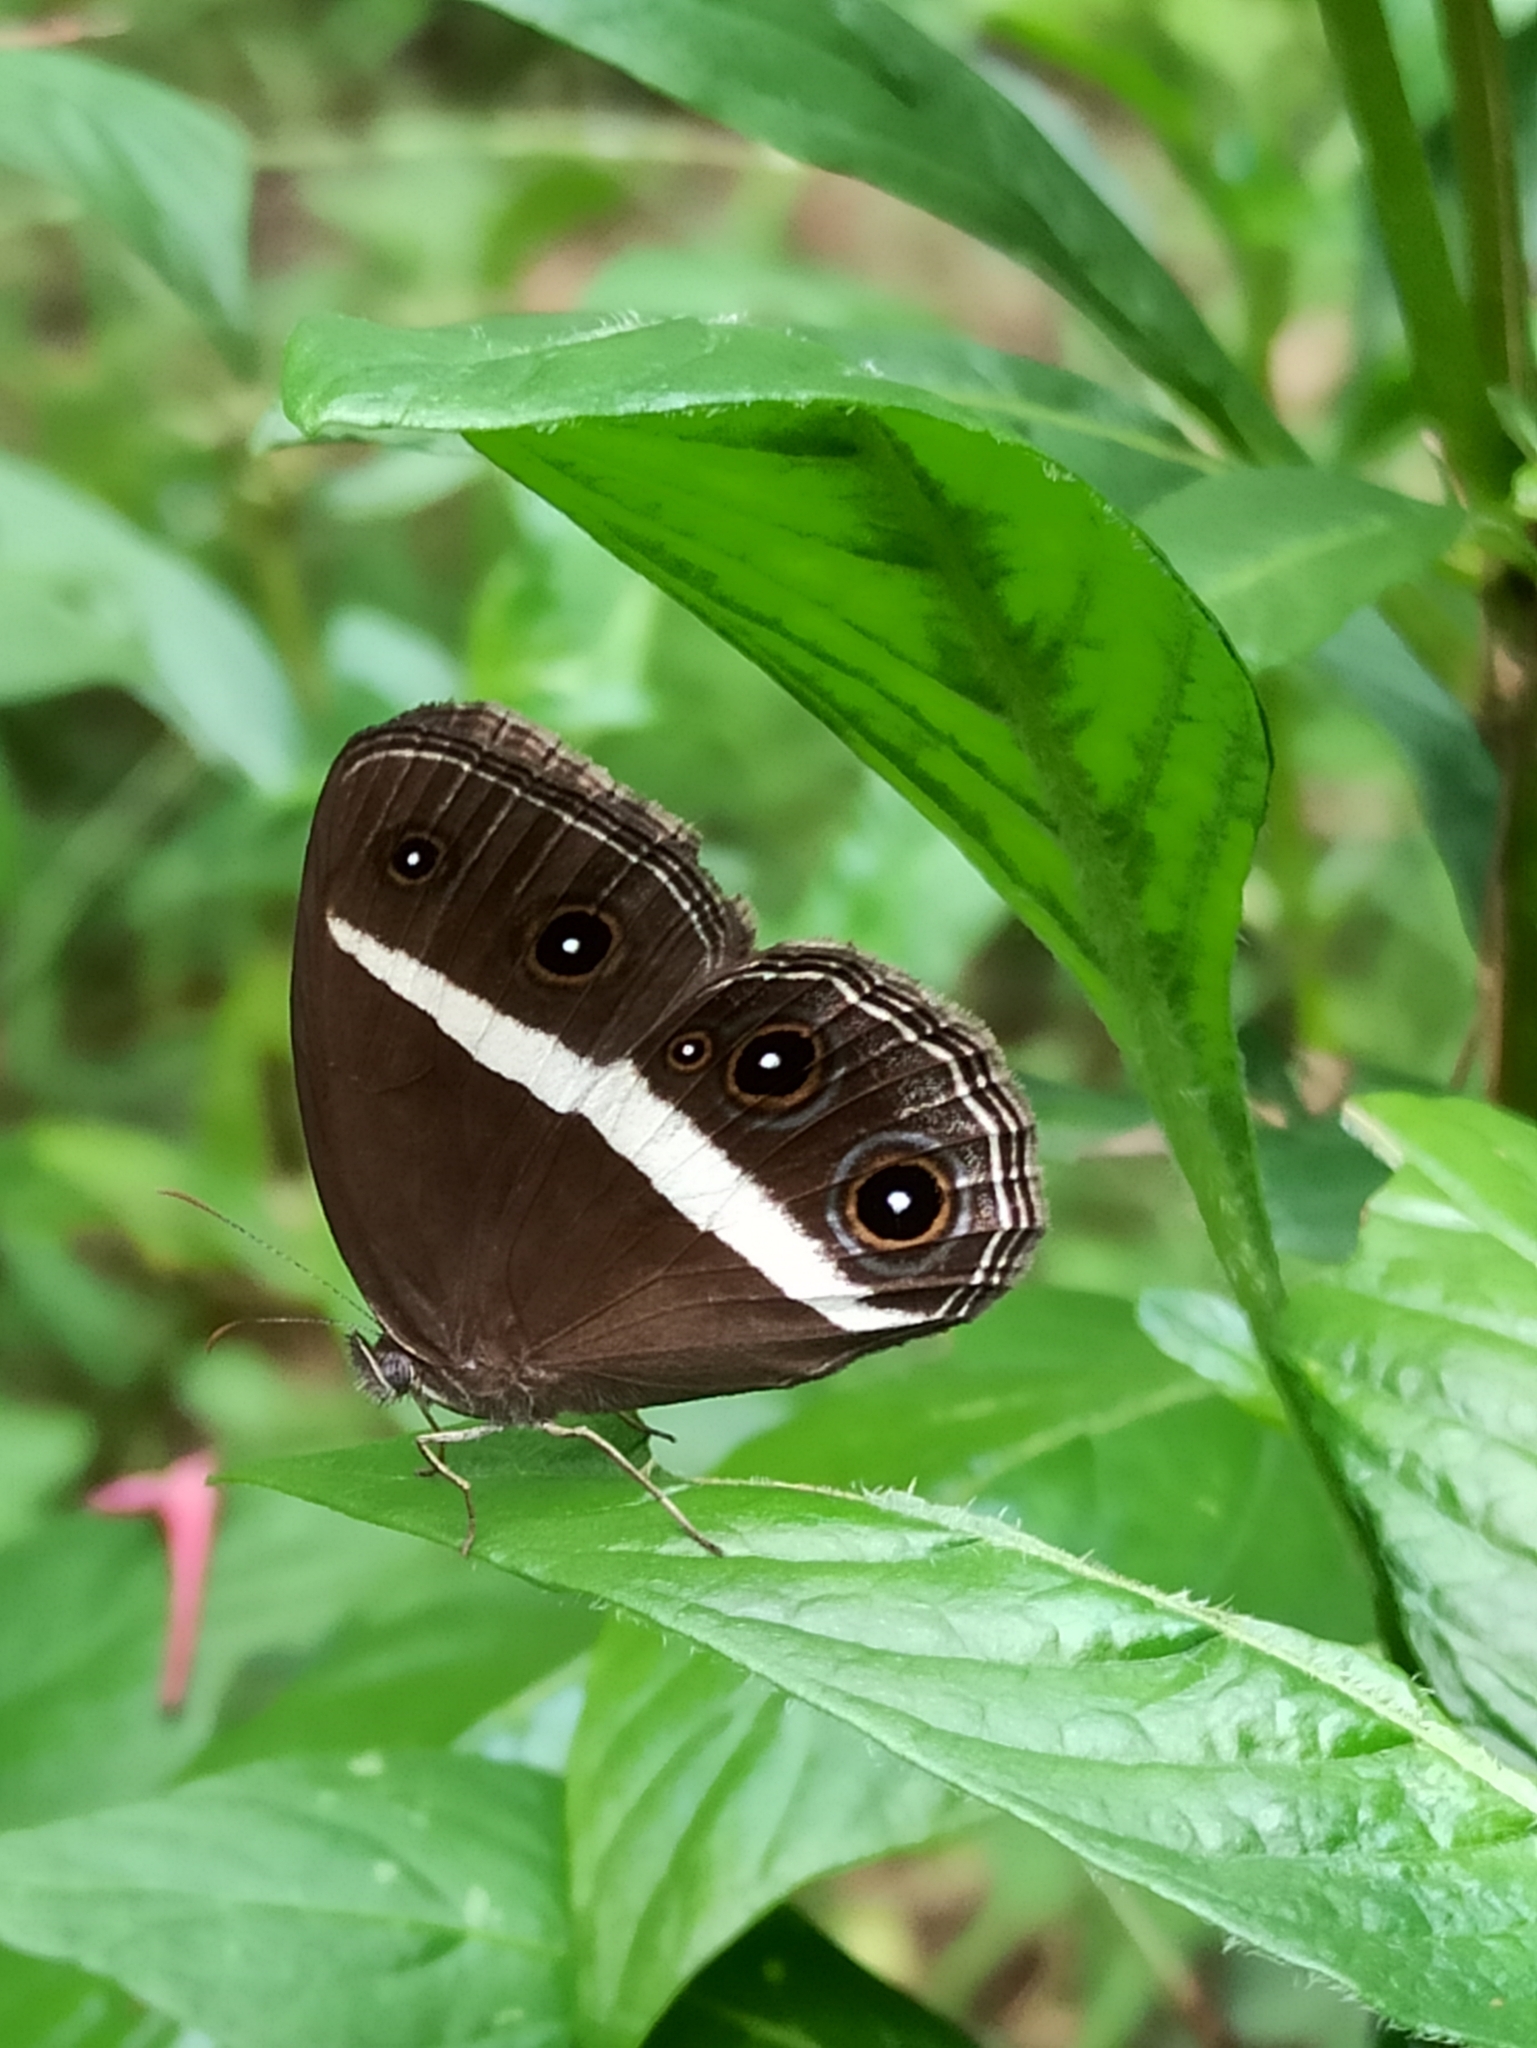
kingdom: Animalia
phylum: Arthropoda
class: Insecta
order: Lepidoptera
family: Nymphalidae
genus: Orsotriaena
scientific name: Orsotriaena medus
